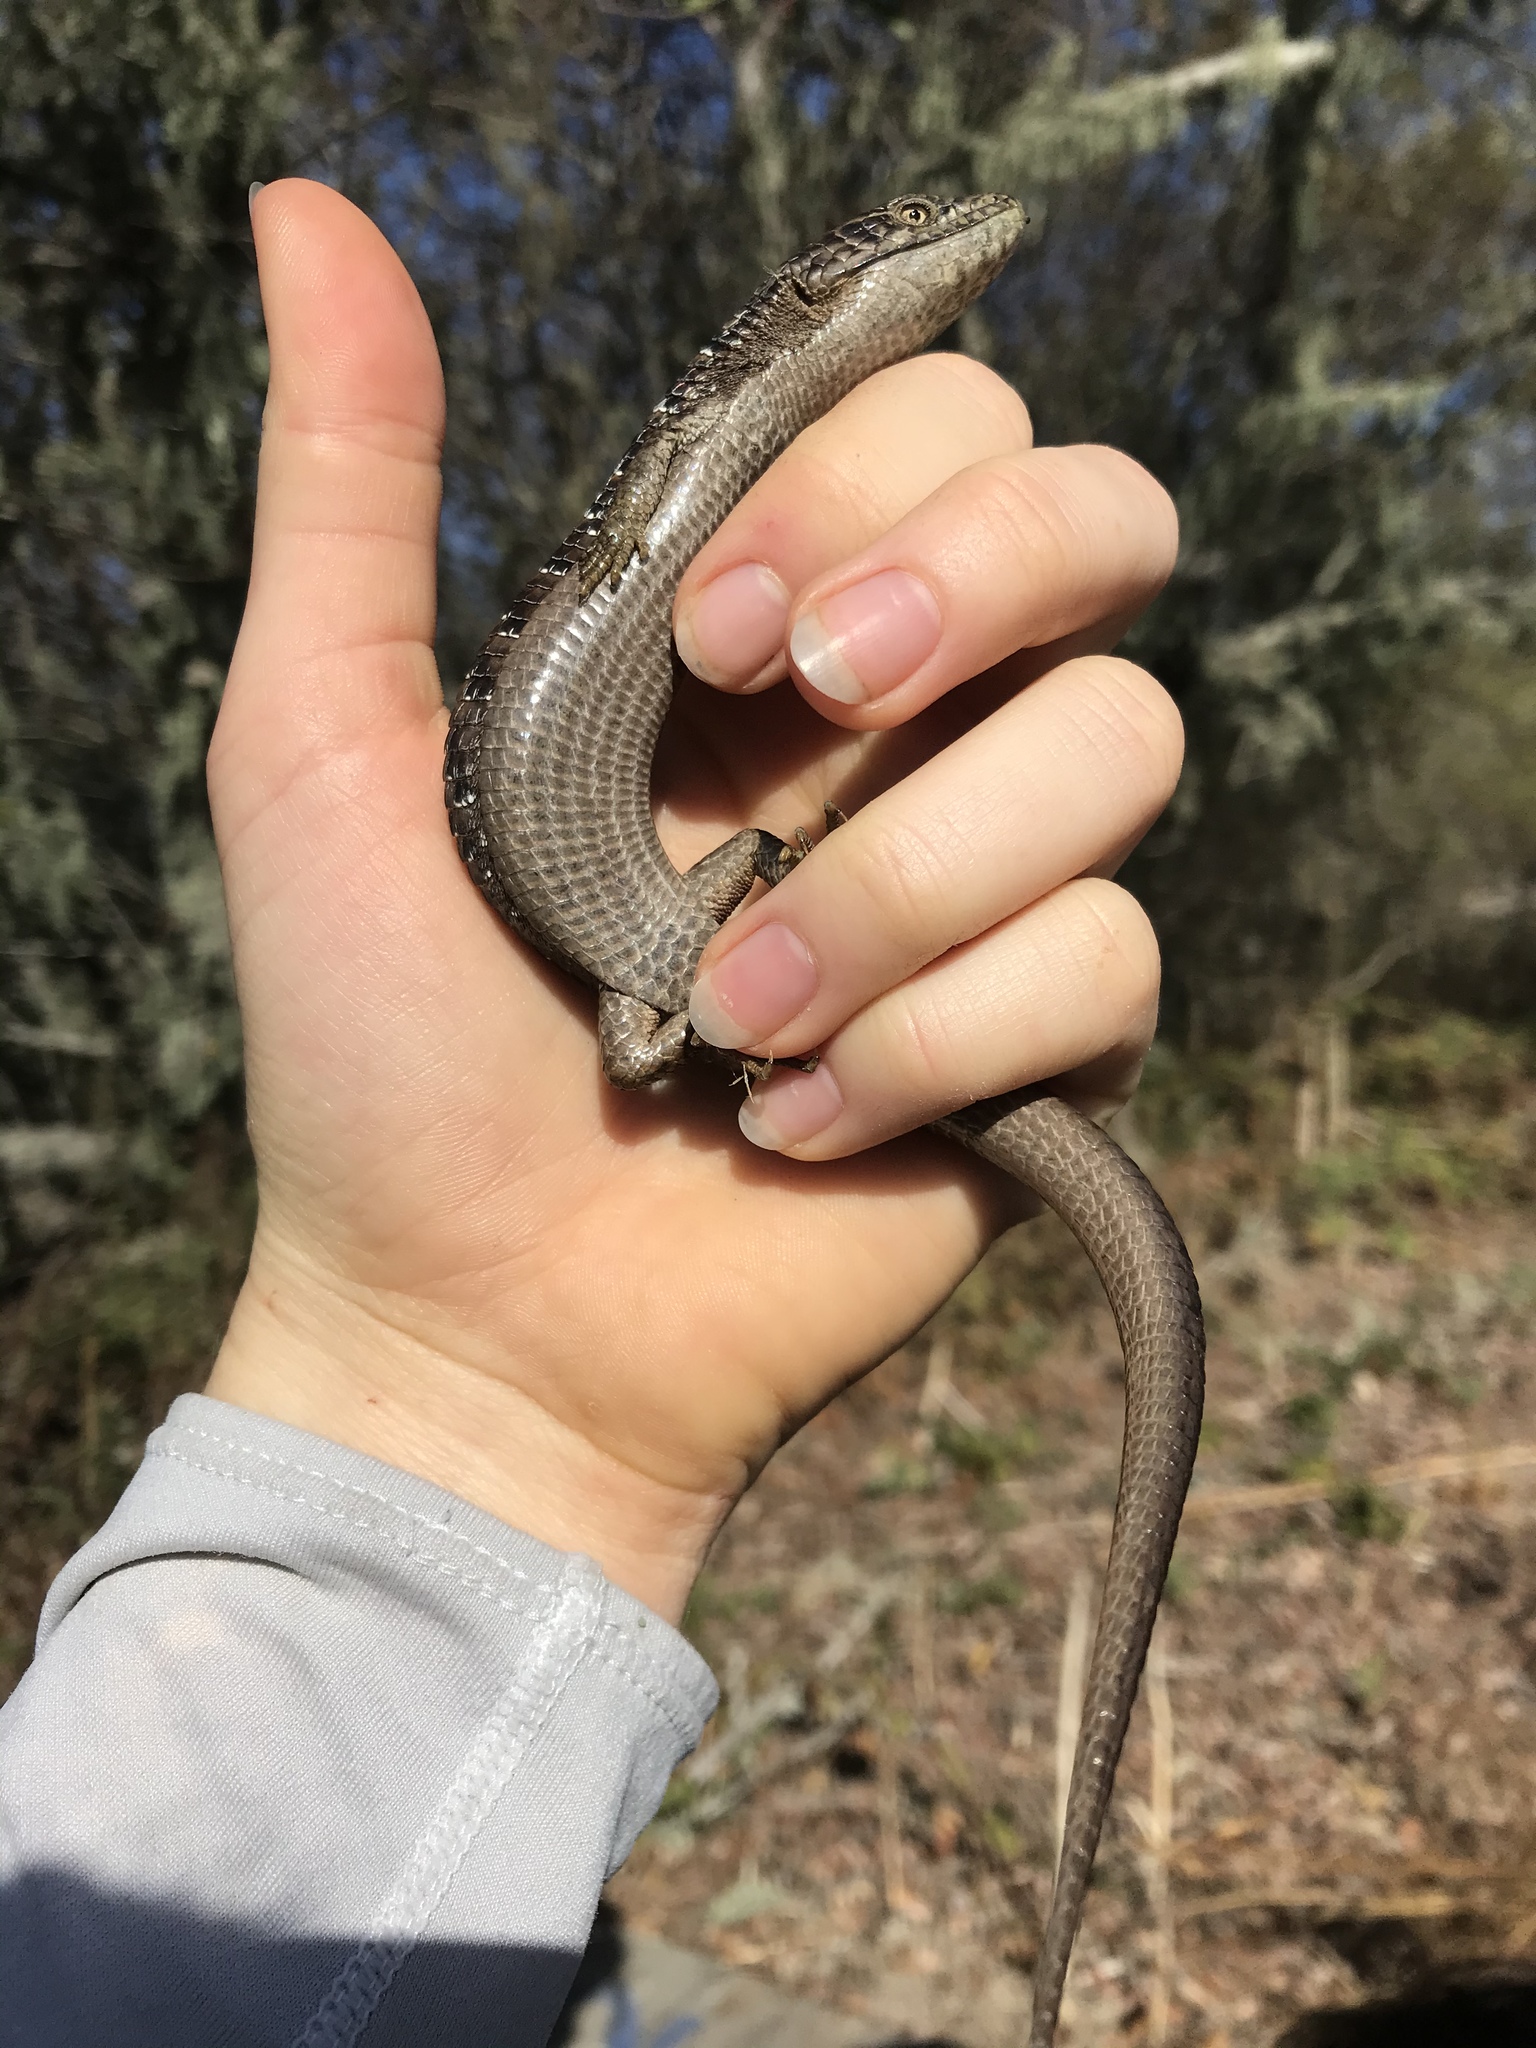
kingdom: Animalia
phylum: Chordata
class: Squamata
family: Anguidae
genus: Elgaria
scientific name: Elgaria multicarinata
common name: Southern alligator lizard
